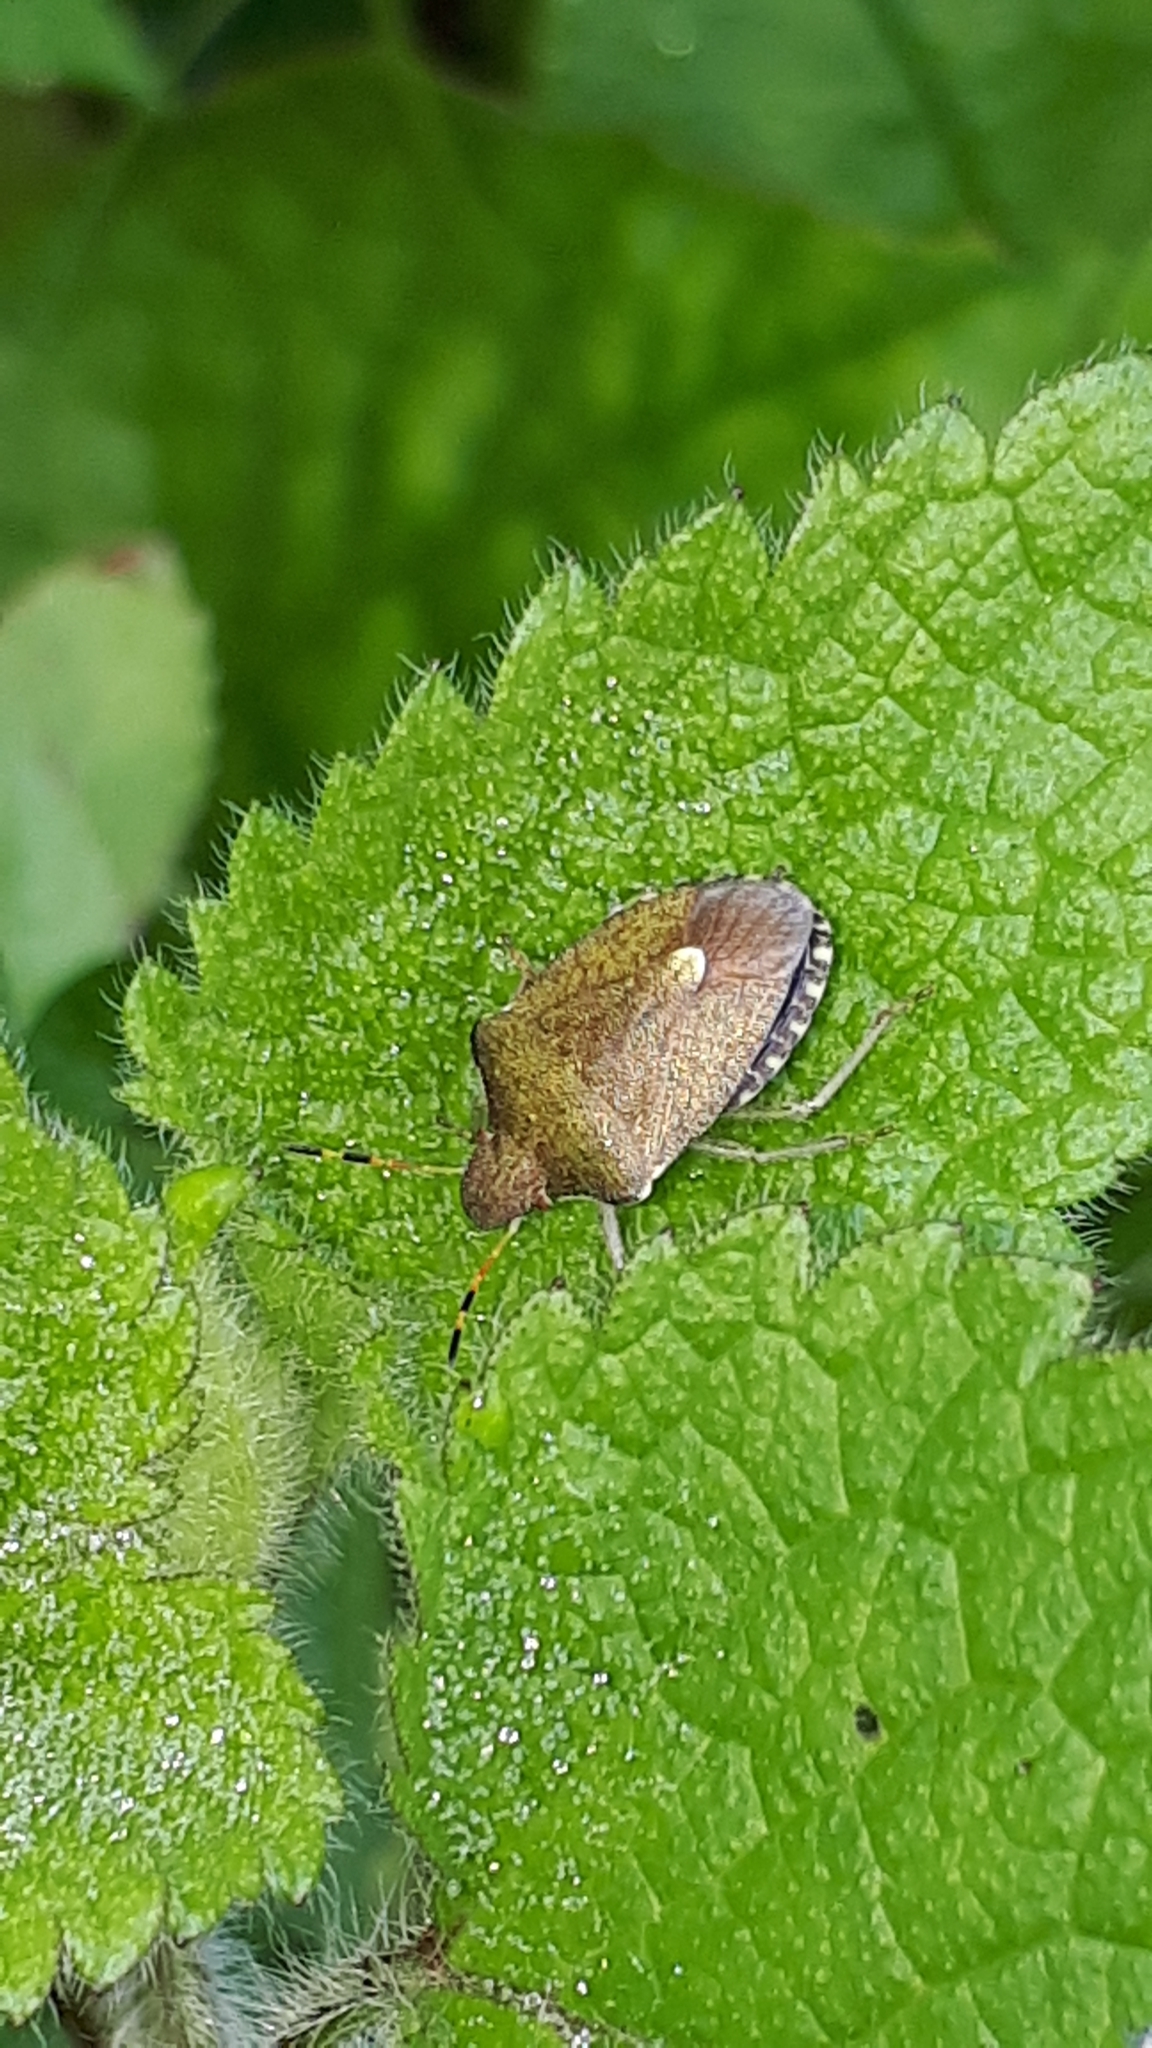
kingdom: Animalia
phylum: Arthropoda
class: Insecta
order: Hemiptera
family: Pentatomidae
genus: Holcostethus
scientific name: Holcostethus strictus
